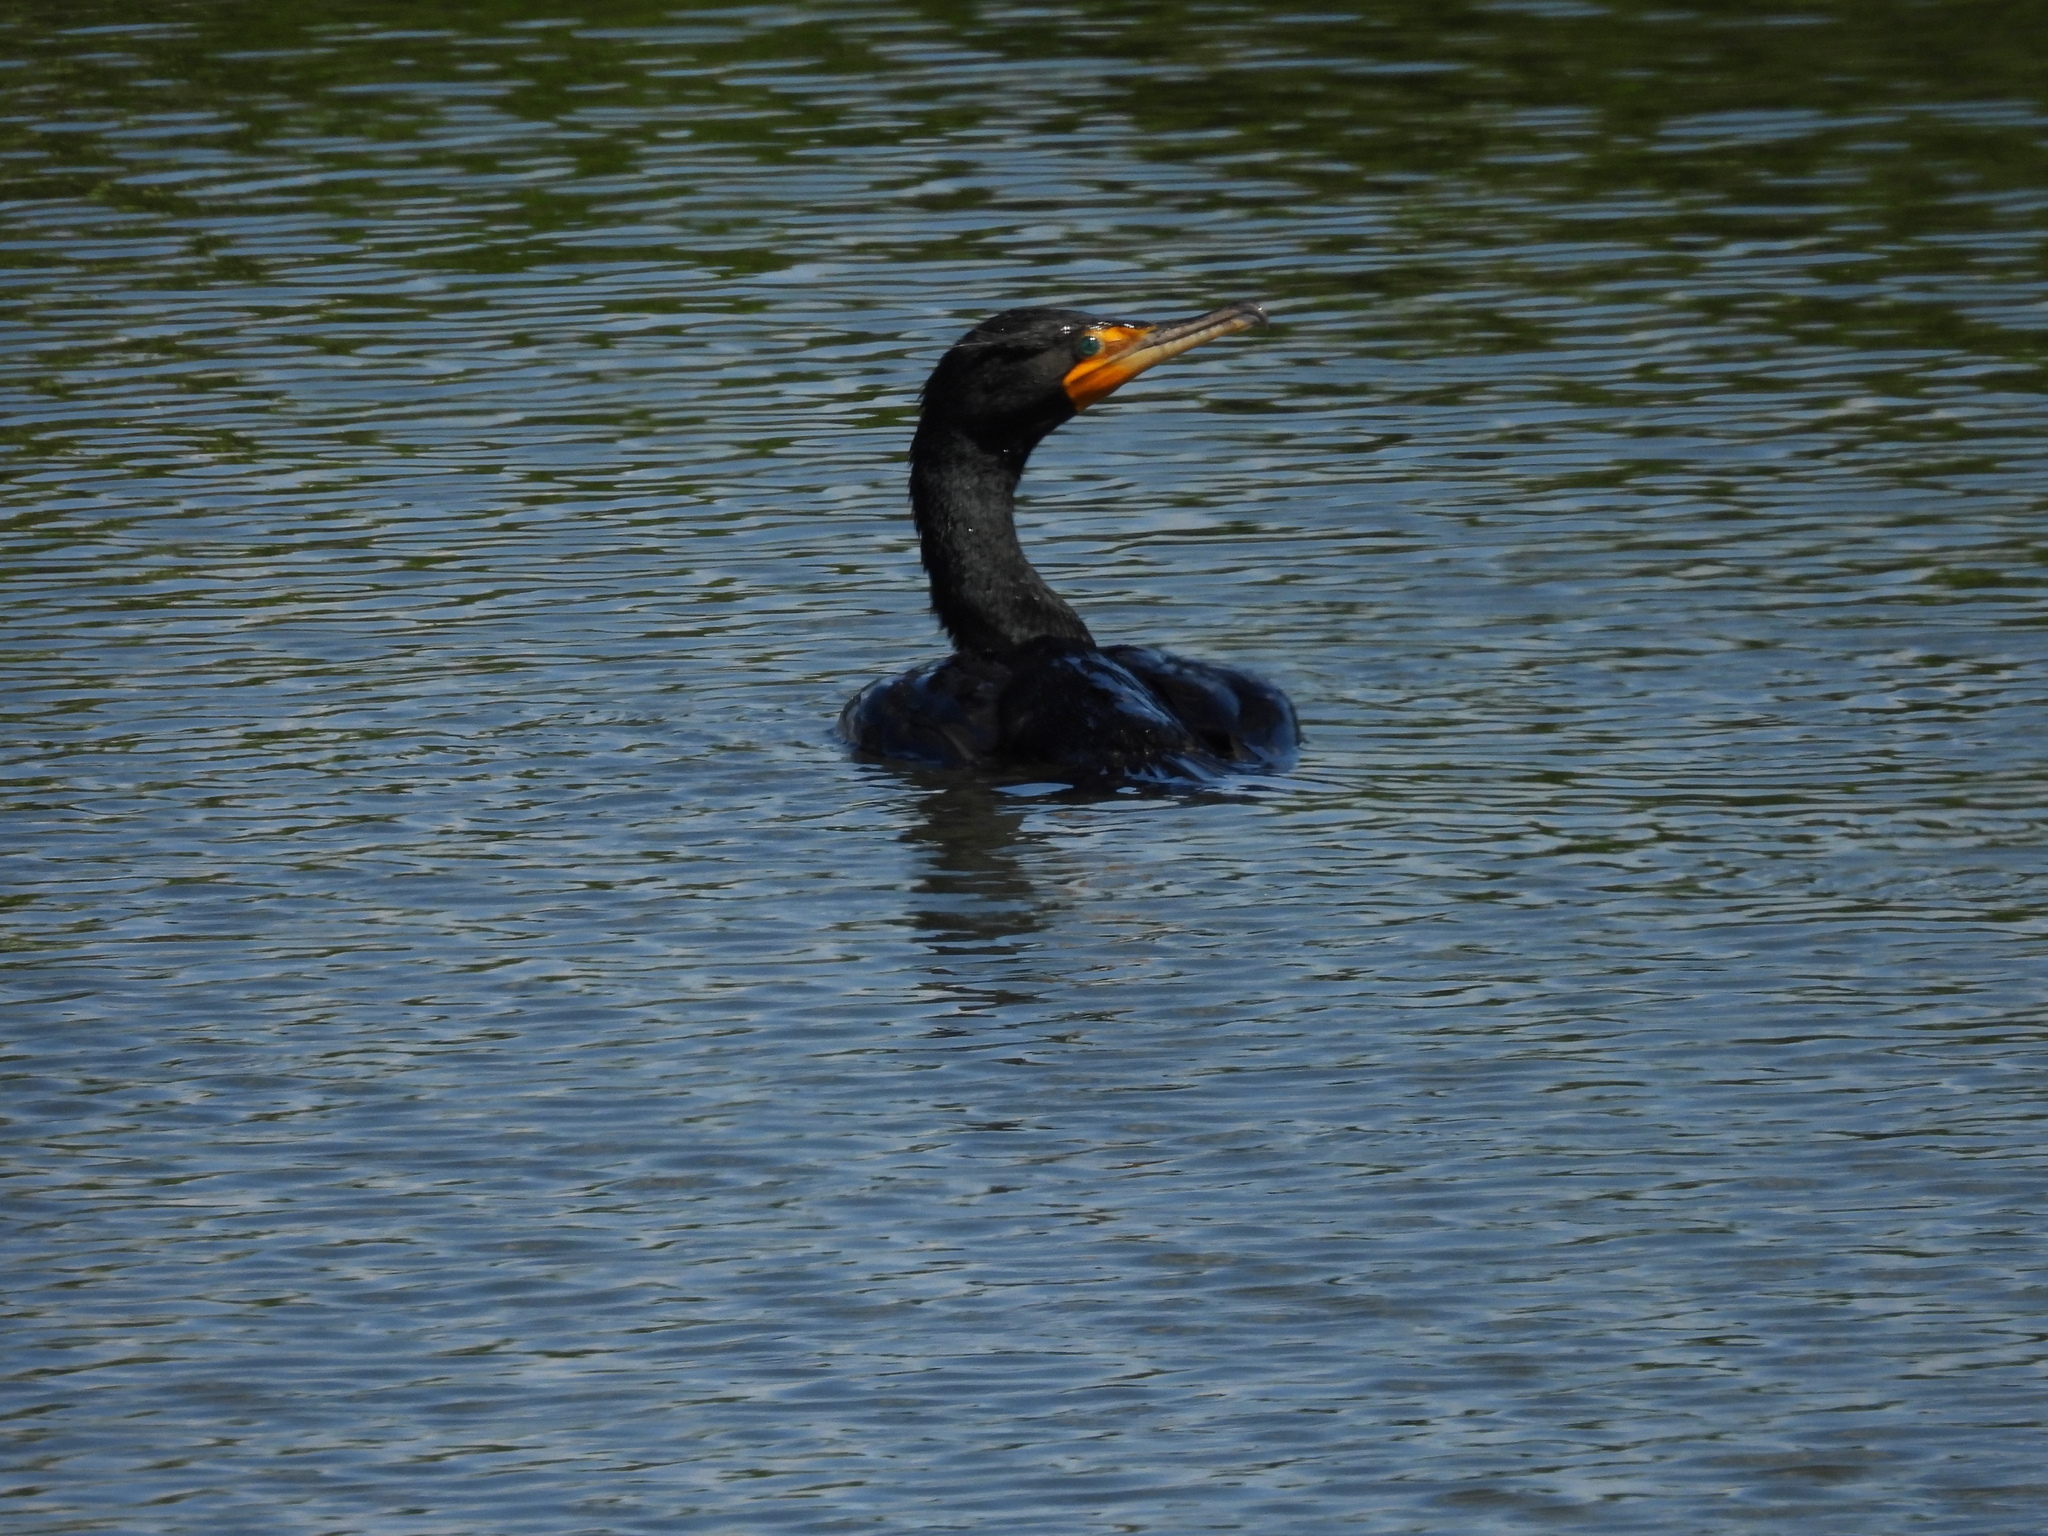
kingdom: Animalia
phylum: Chordata
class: Aves
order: Suliformes
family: Phalacrocoracidae
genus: Phalacrocorax
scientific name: Phalacrocorax auritus
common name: Double-crested cormorant
